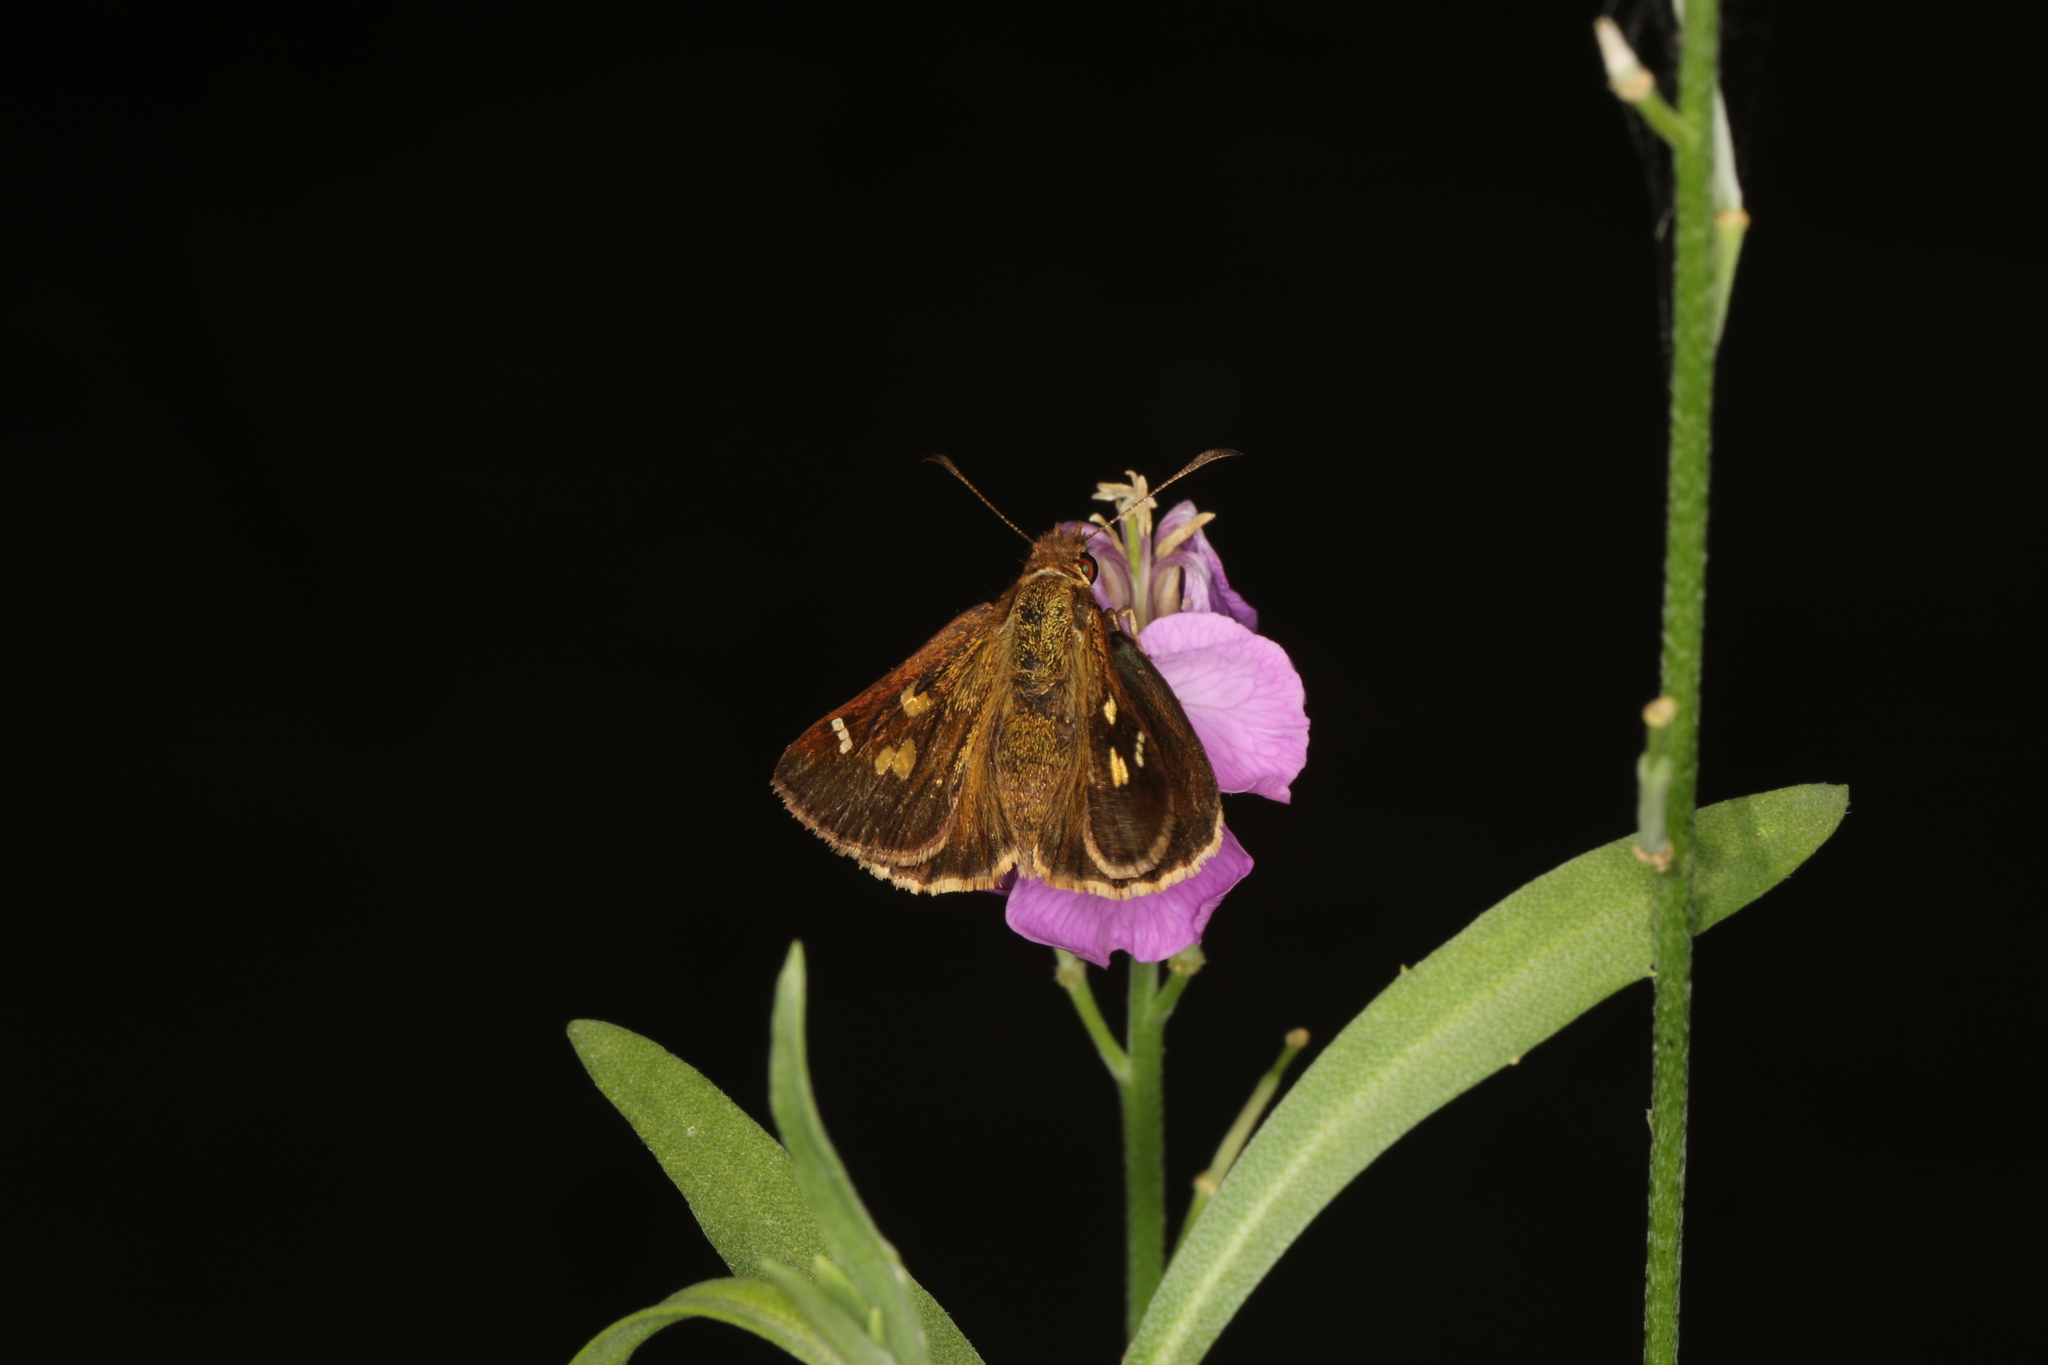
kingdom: Animalia
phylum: Arthropoda
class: Insecta
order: Lepidoptera
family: Hesperiidae
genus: Toxidia
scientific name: Toxidia rietmanni
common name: White-brand skipper
